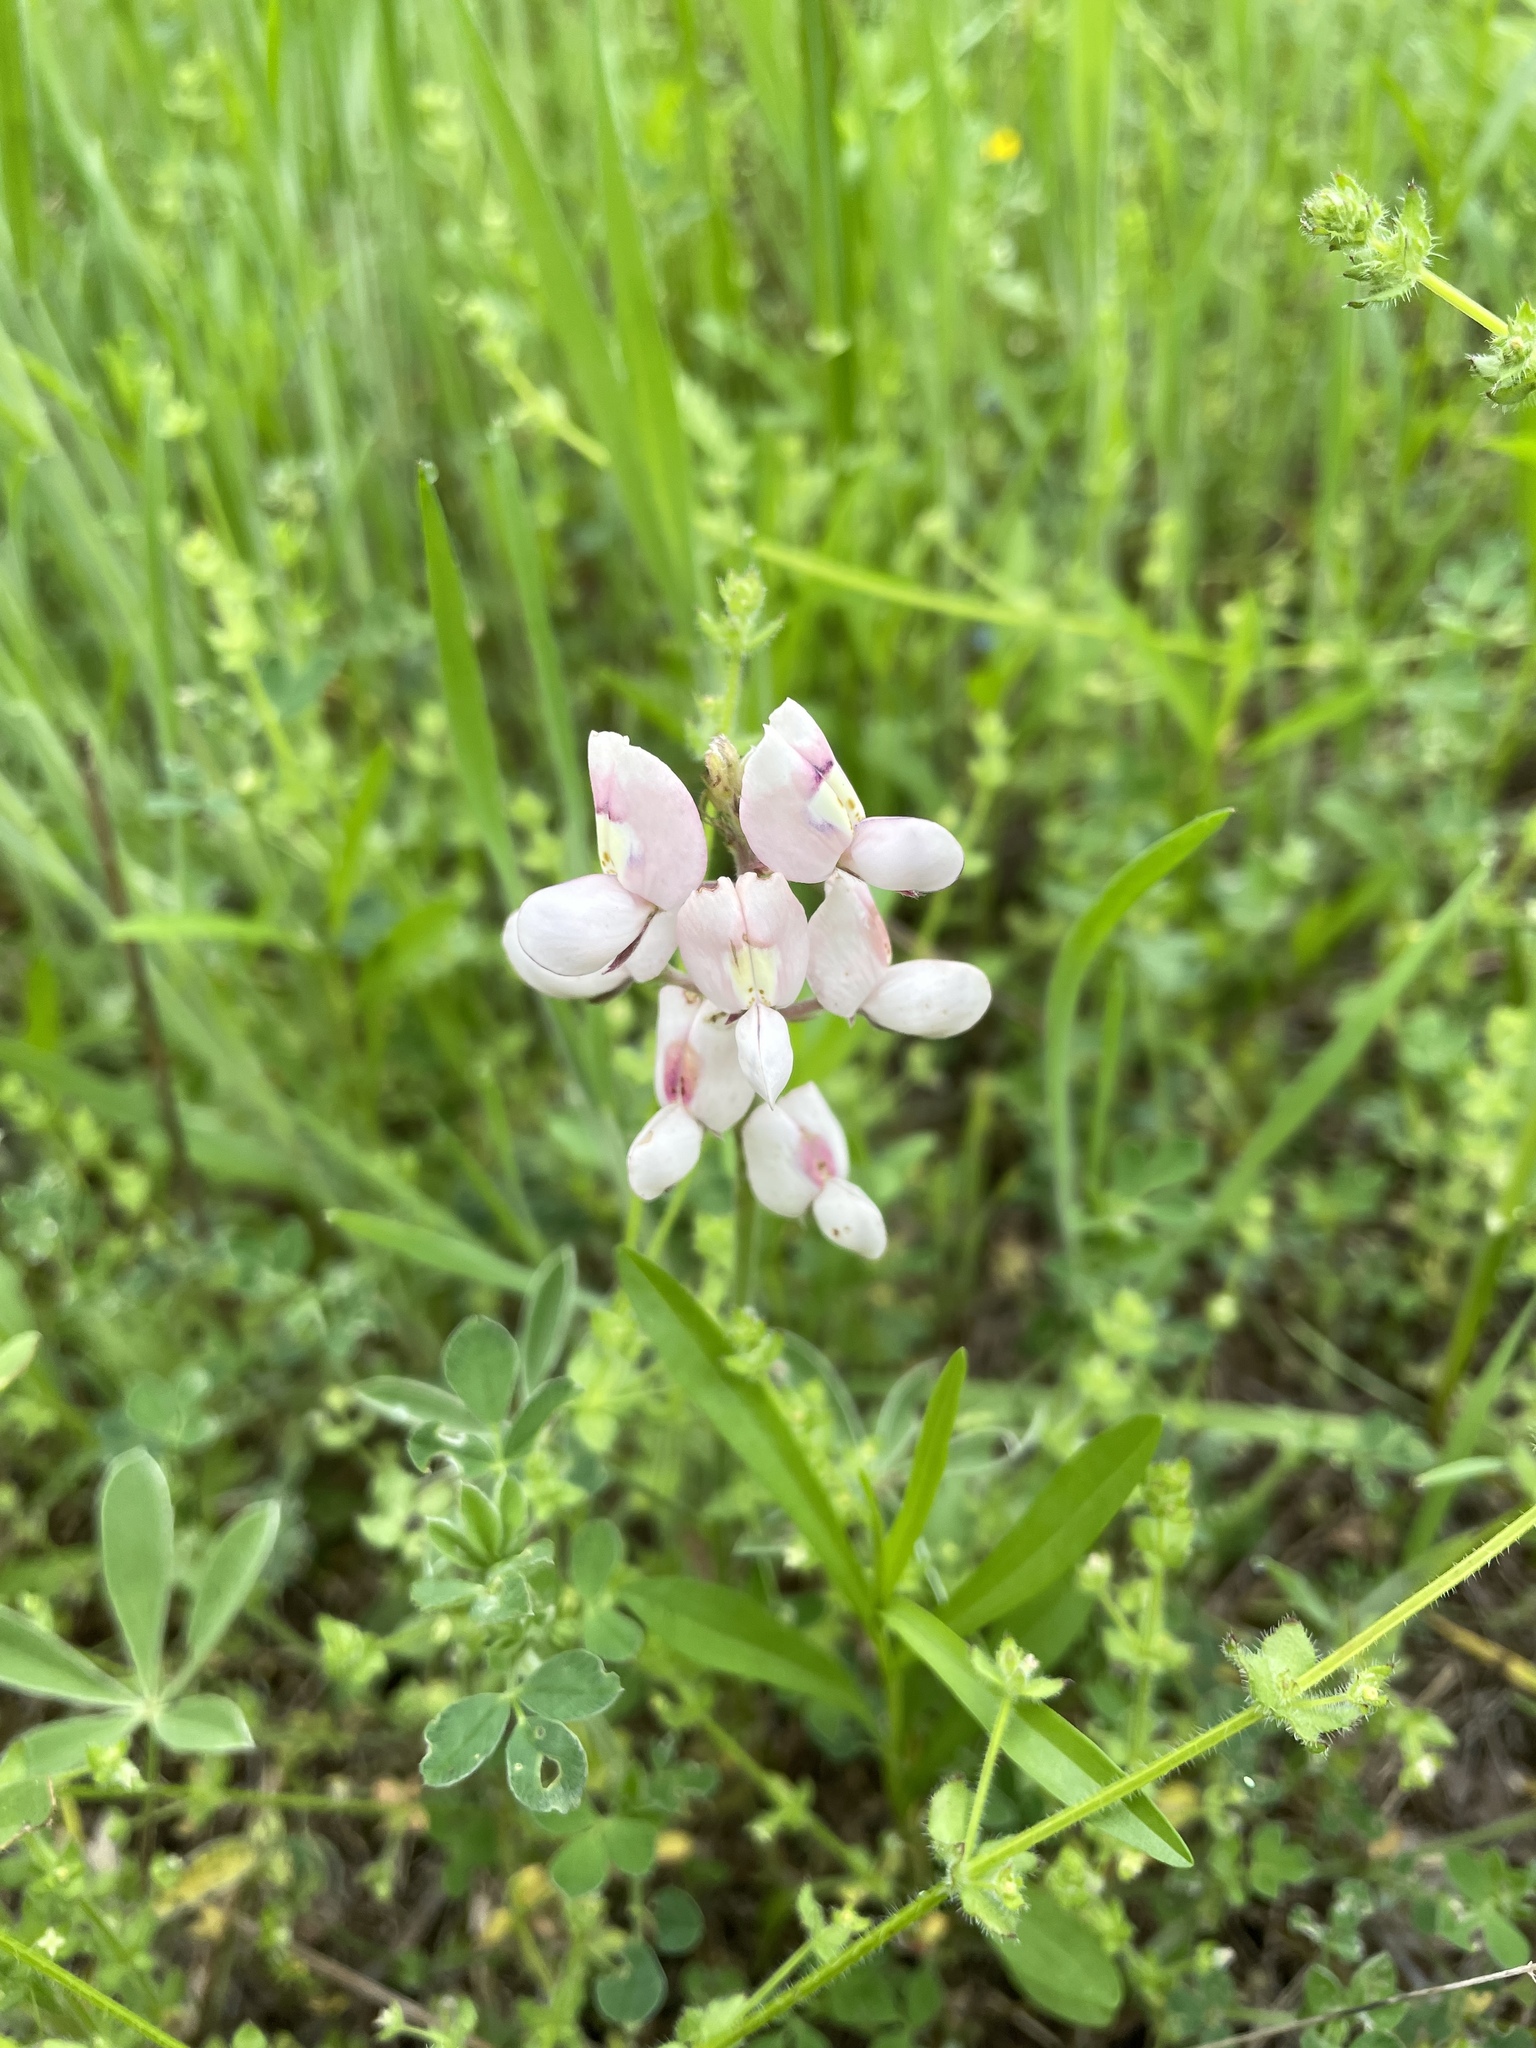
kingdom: Plantae
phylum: Tracheophyta
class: Magnoliopsida
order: Fabales
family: Fabaceae
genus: Lupinus
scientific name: Lupinus texensis
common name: Texas bluebonnet
